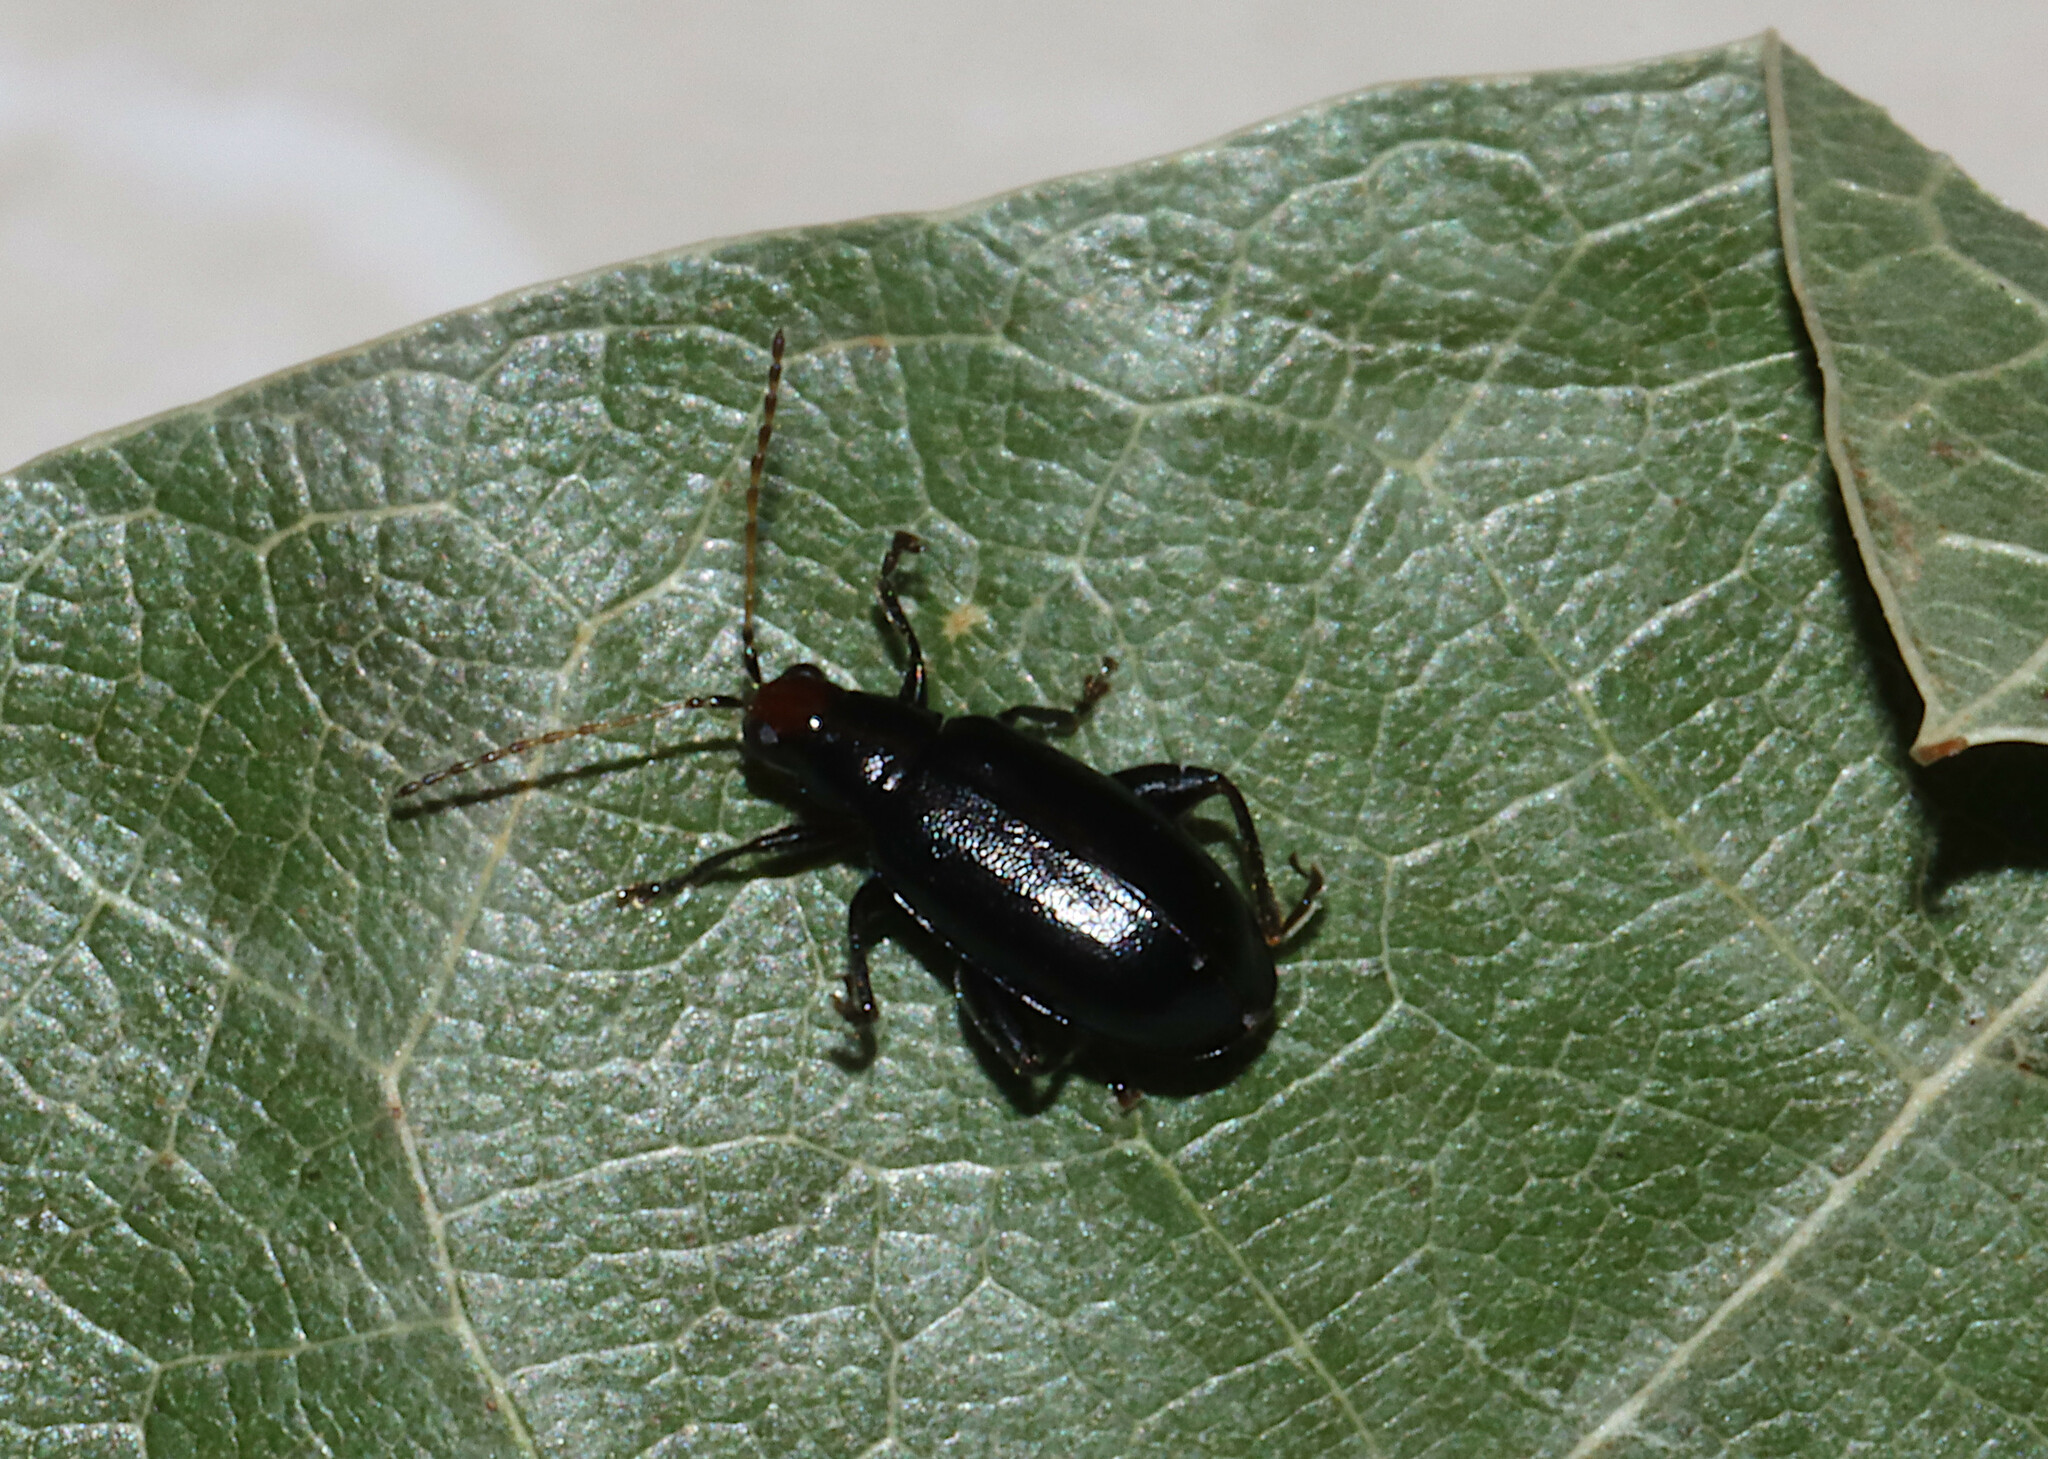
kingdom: Animalia
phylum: Arthropoda
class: Insecta
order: Coleoptera
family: Chrysomelidae
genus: Systena
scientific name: Systena frontalis
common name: Red-headed flea beetle
